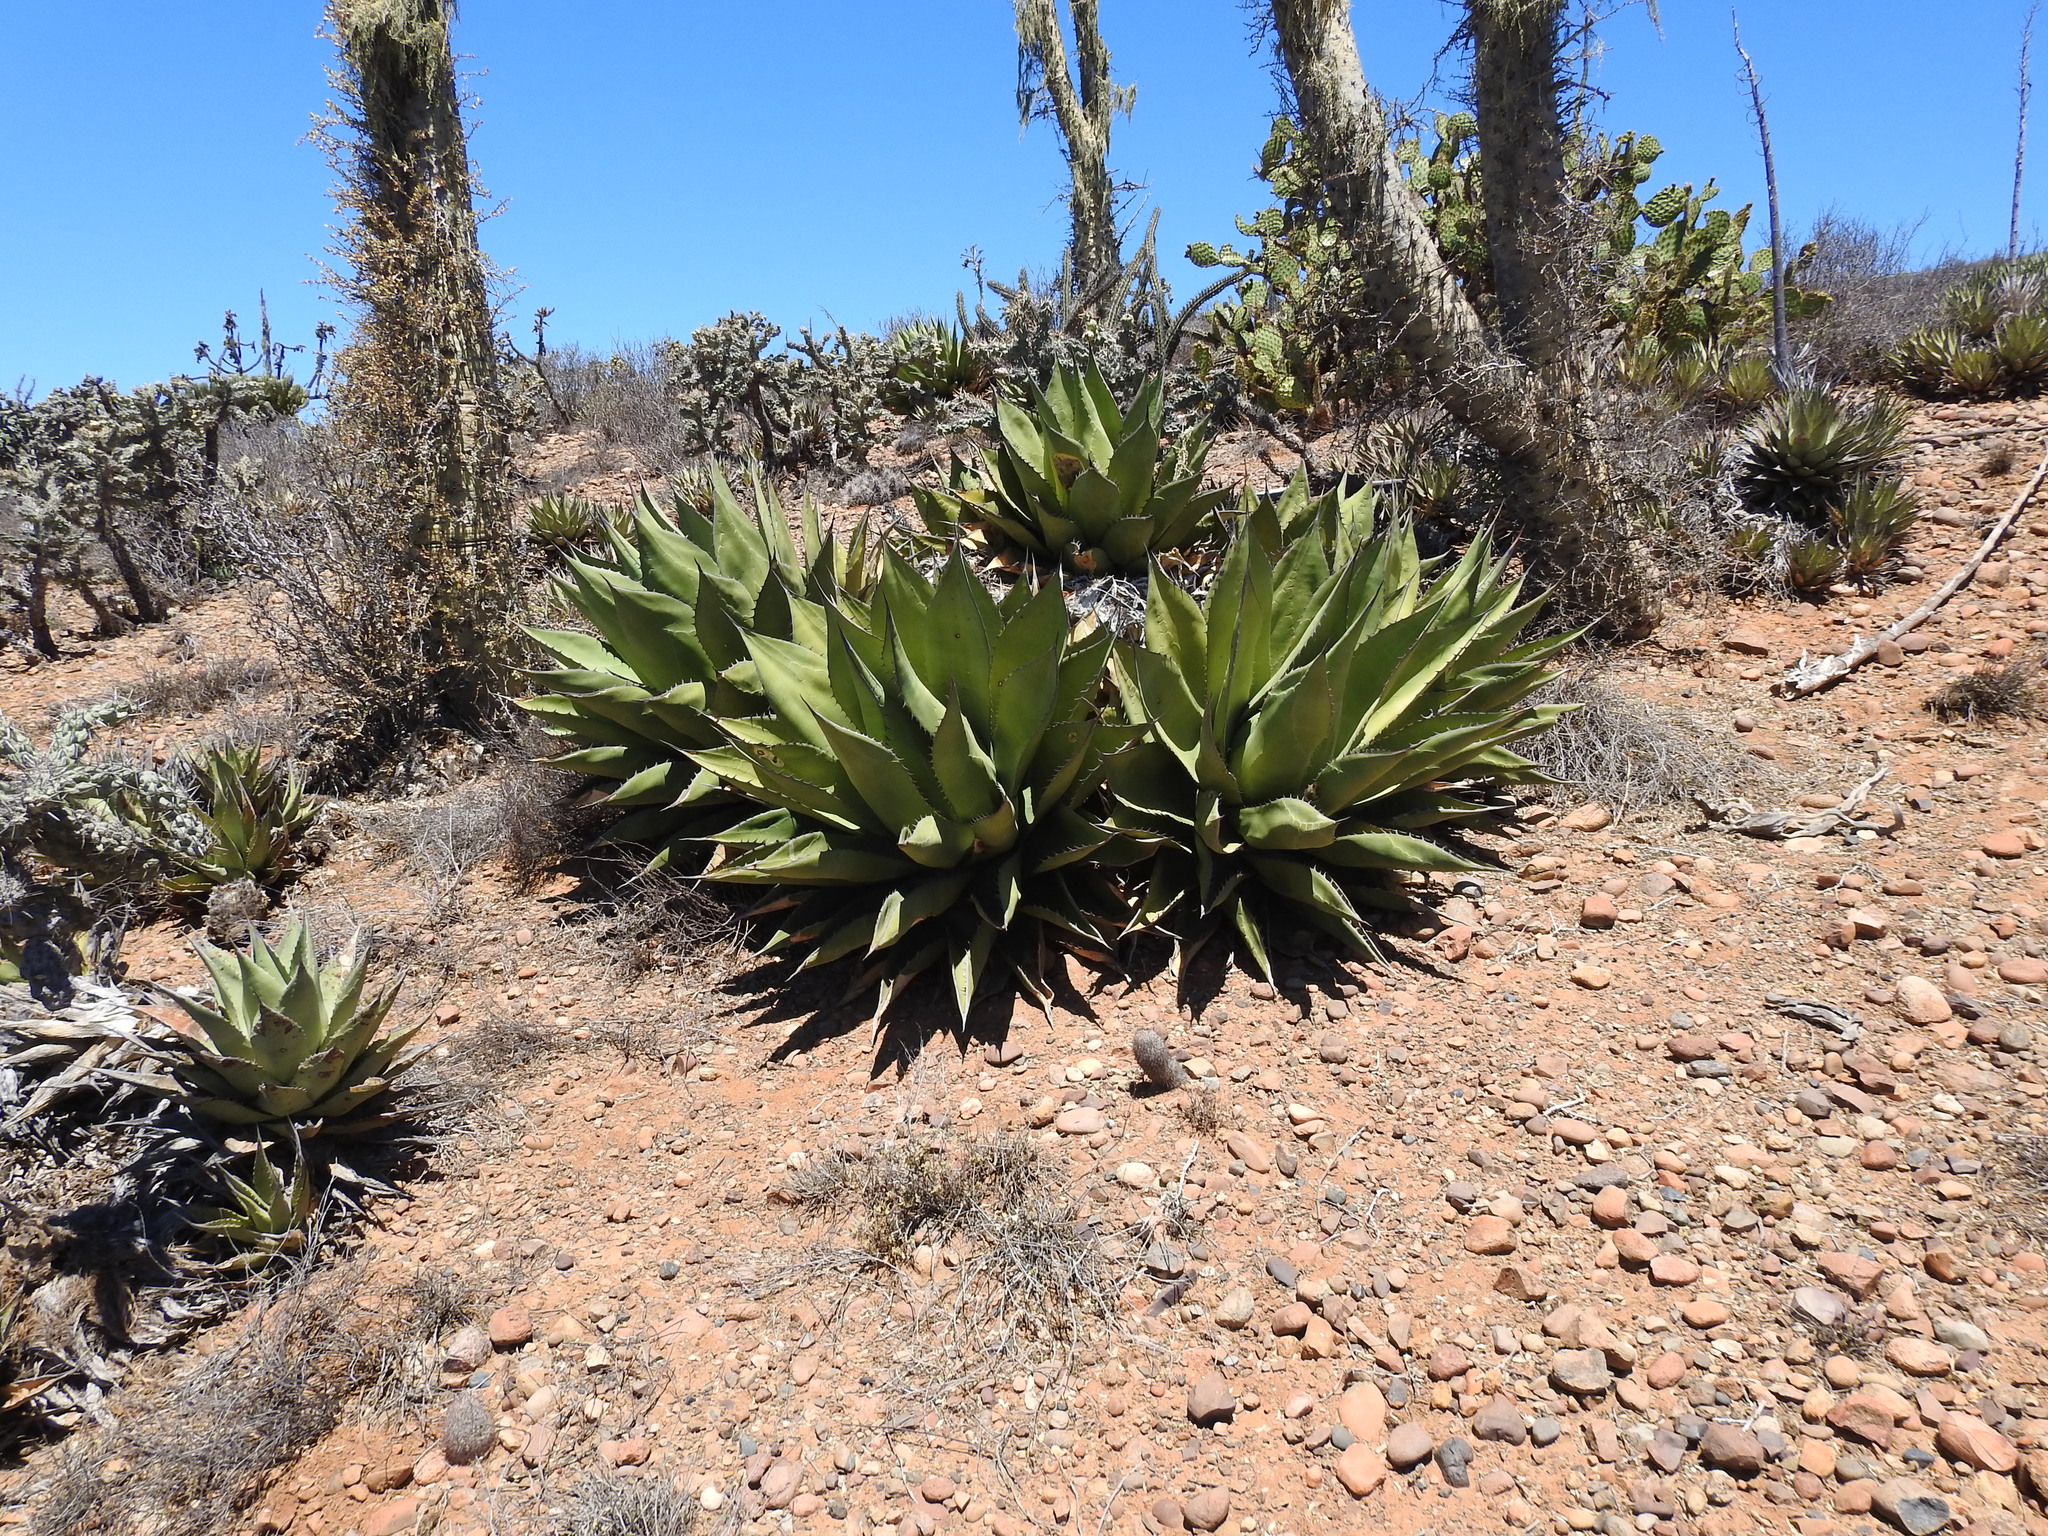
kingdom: Plantae
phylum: Tracheophyta
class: Liliopsida
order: Asparagales
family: Asparagaceae
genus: Agave
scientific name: Agave shawii
